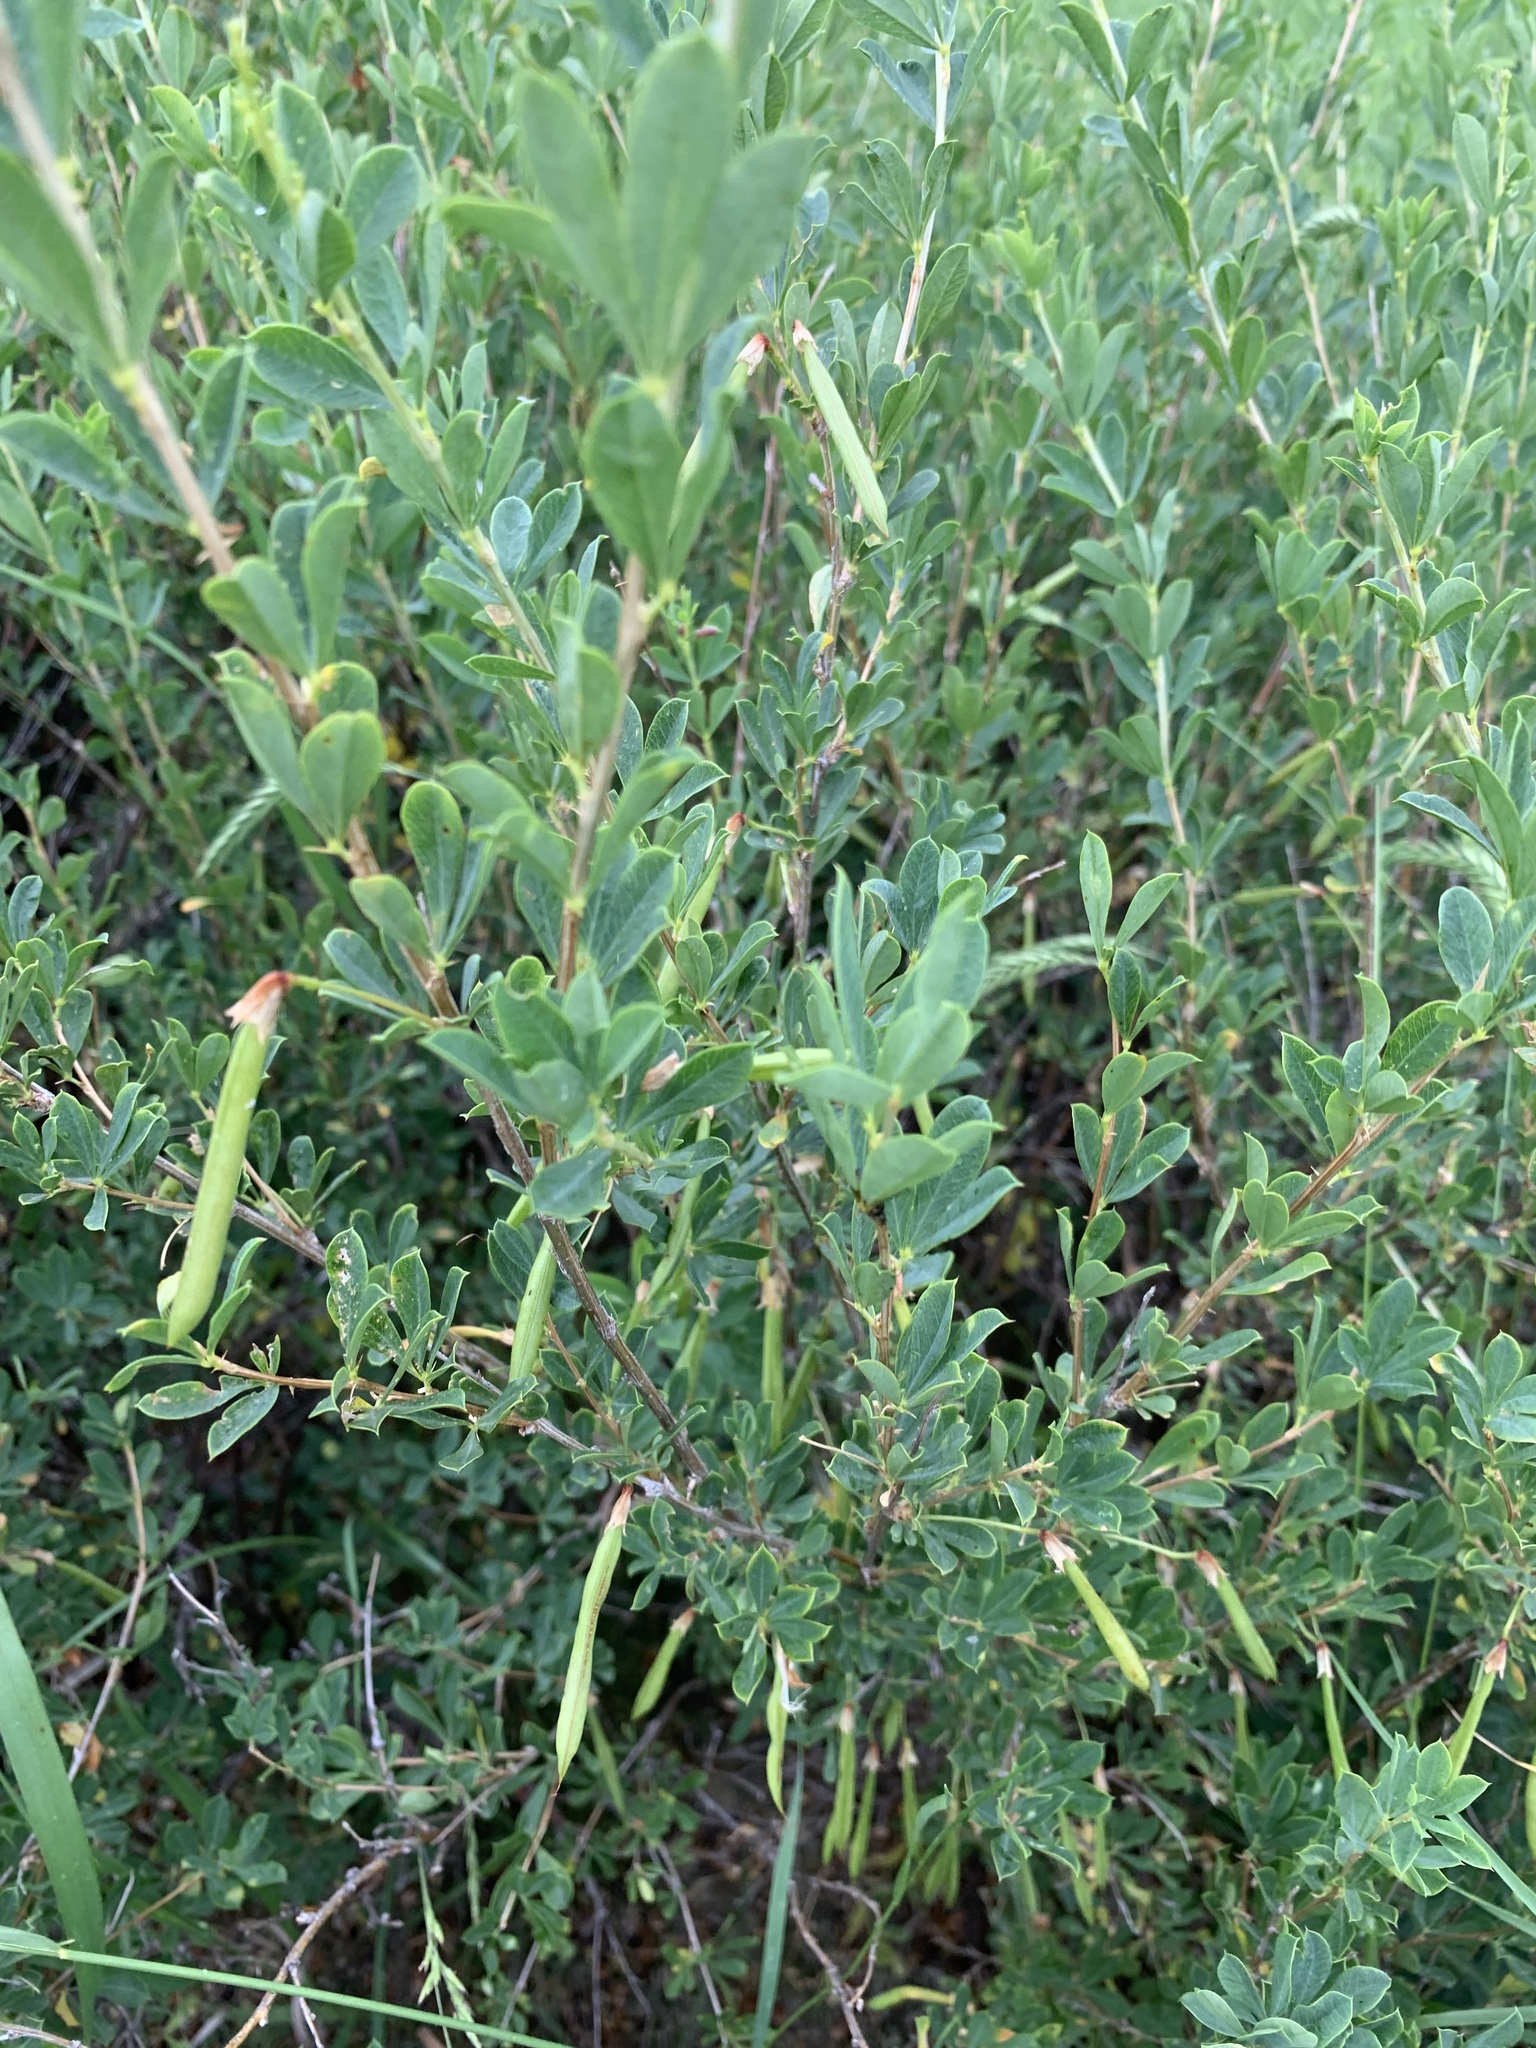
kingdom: Plantae
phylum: Tracheophyta
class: Magnoliopsida
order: Fabales
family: Fabaceae
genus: Caragana
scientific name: Caragana frutex
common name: Russian peashrub
